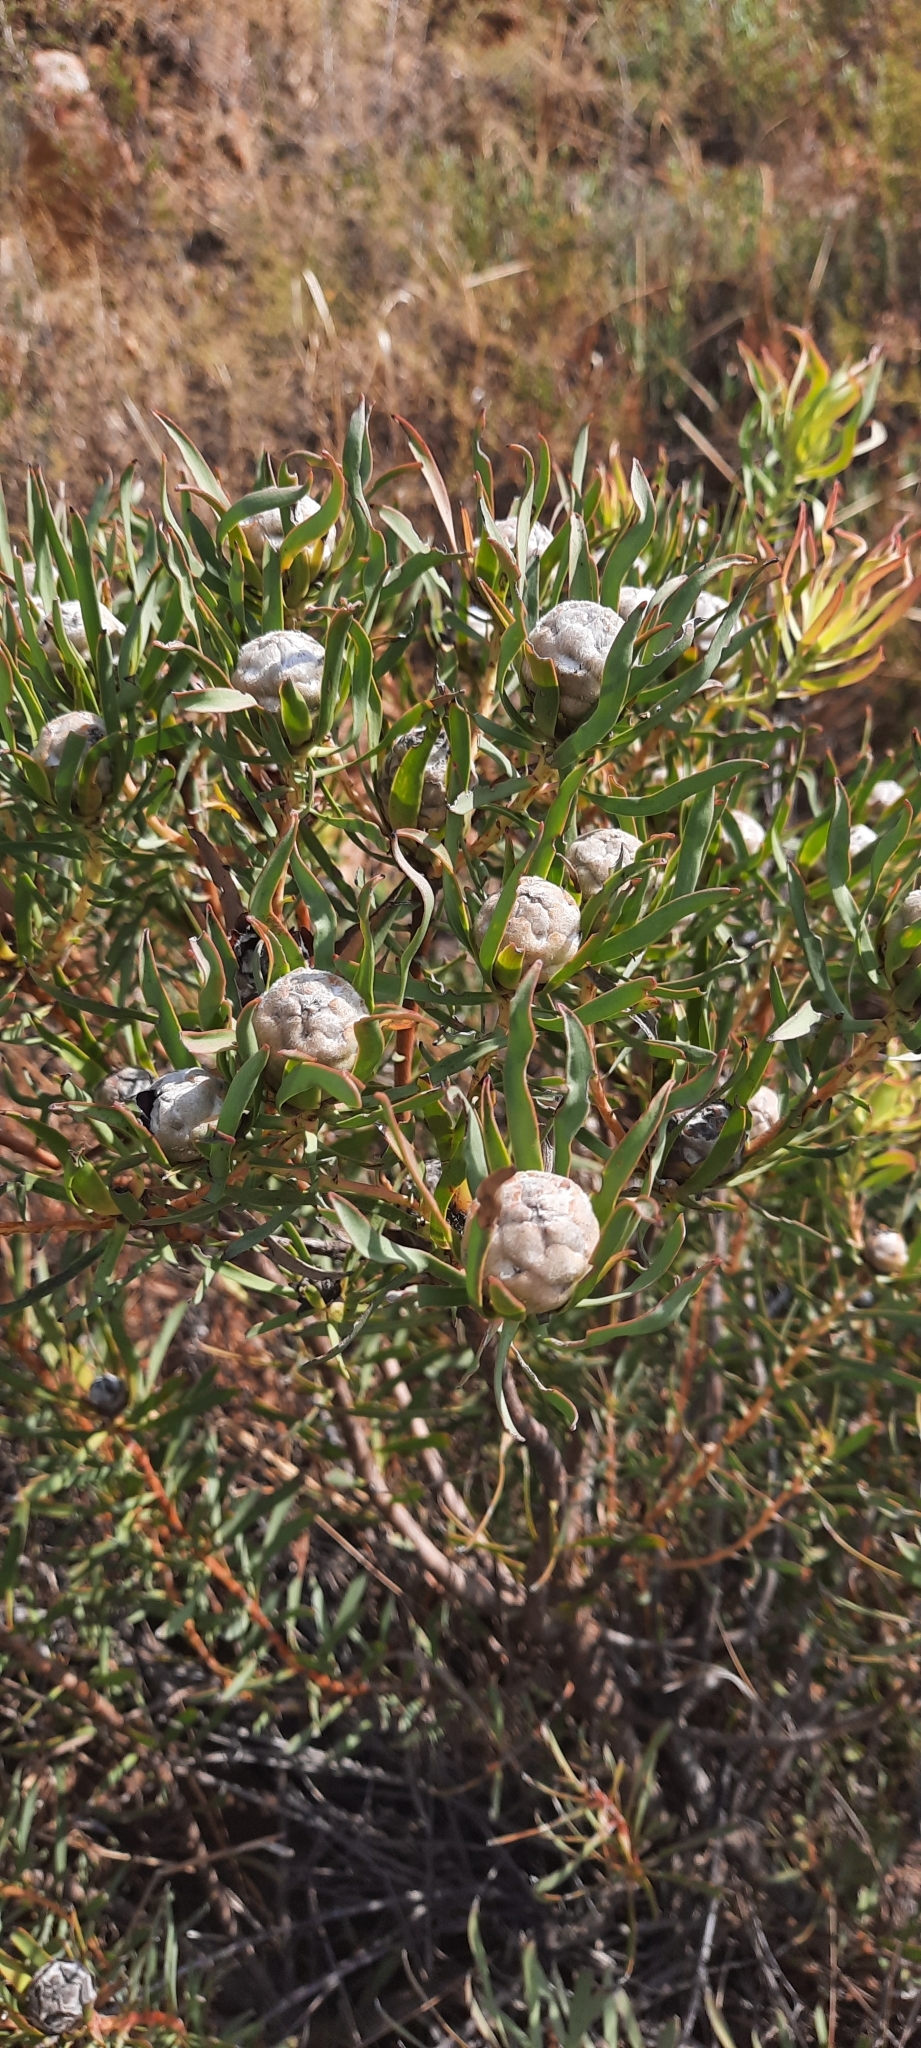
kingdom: Plantae
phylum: Tracheophyta
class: Magnoliopsida
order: Proteales
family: Proteaceae
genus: Leucadendron
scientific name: Leucadendron salignum
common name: Common sunshine conebush
